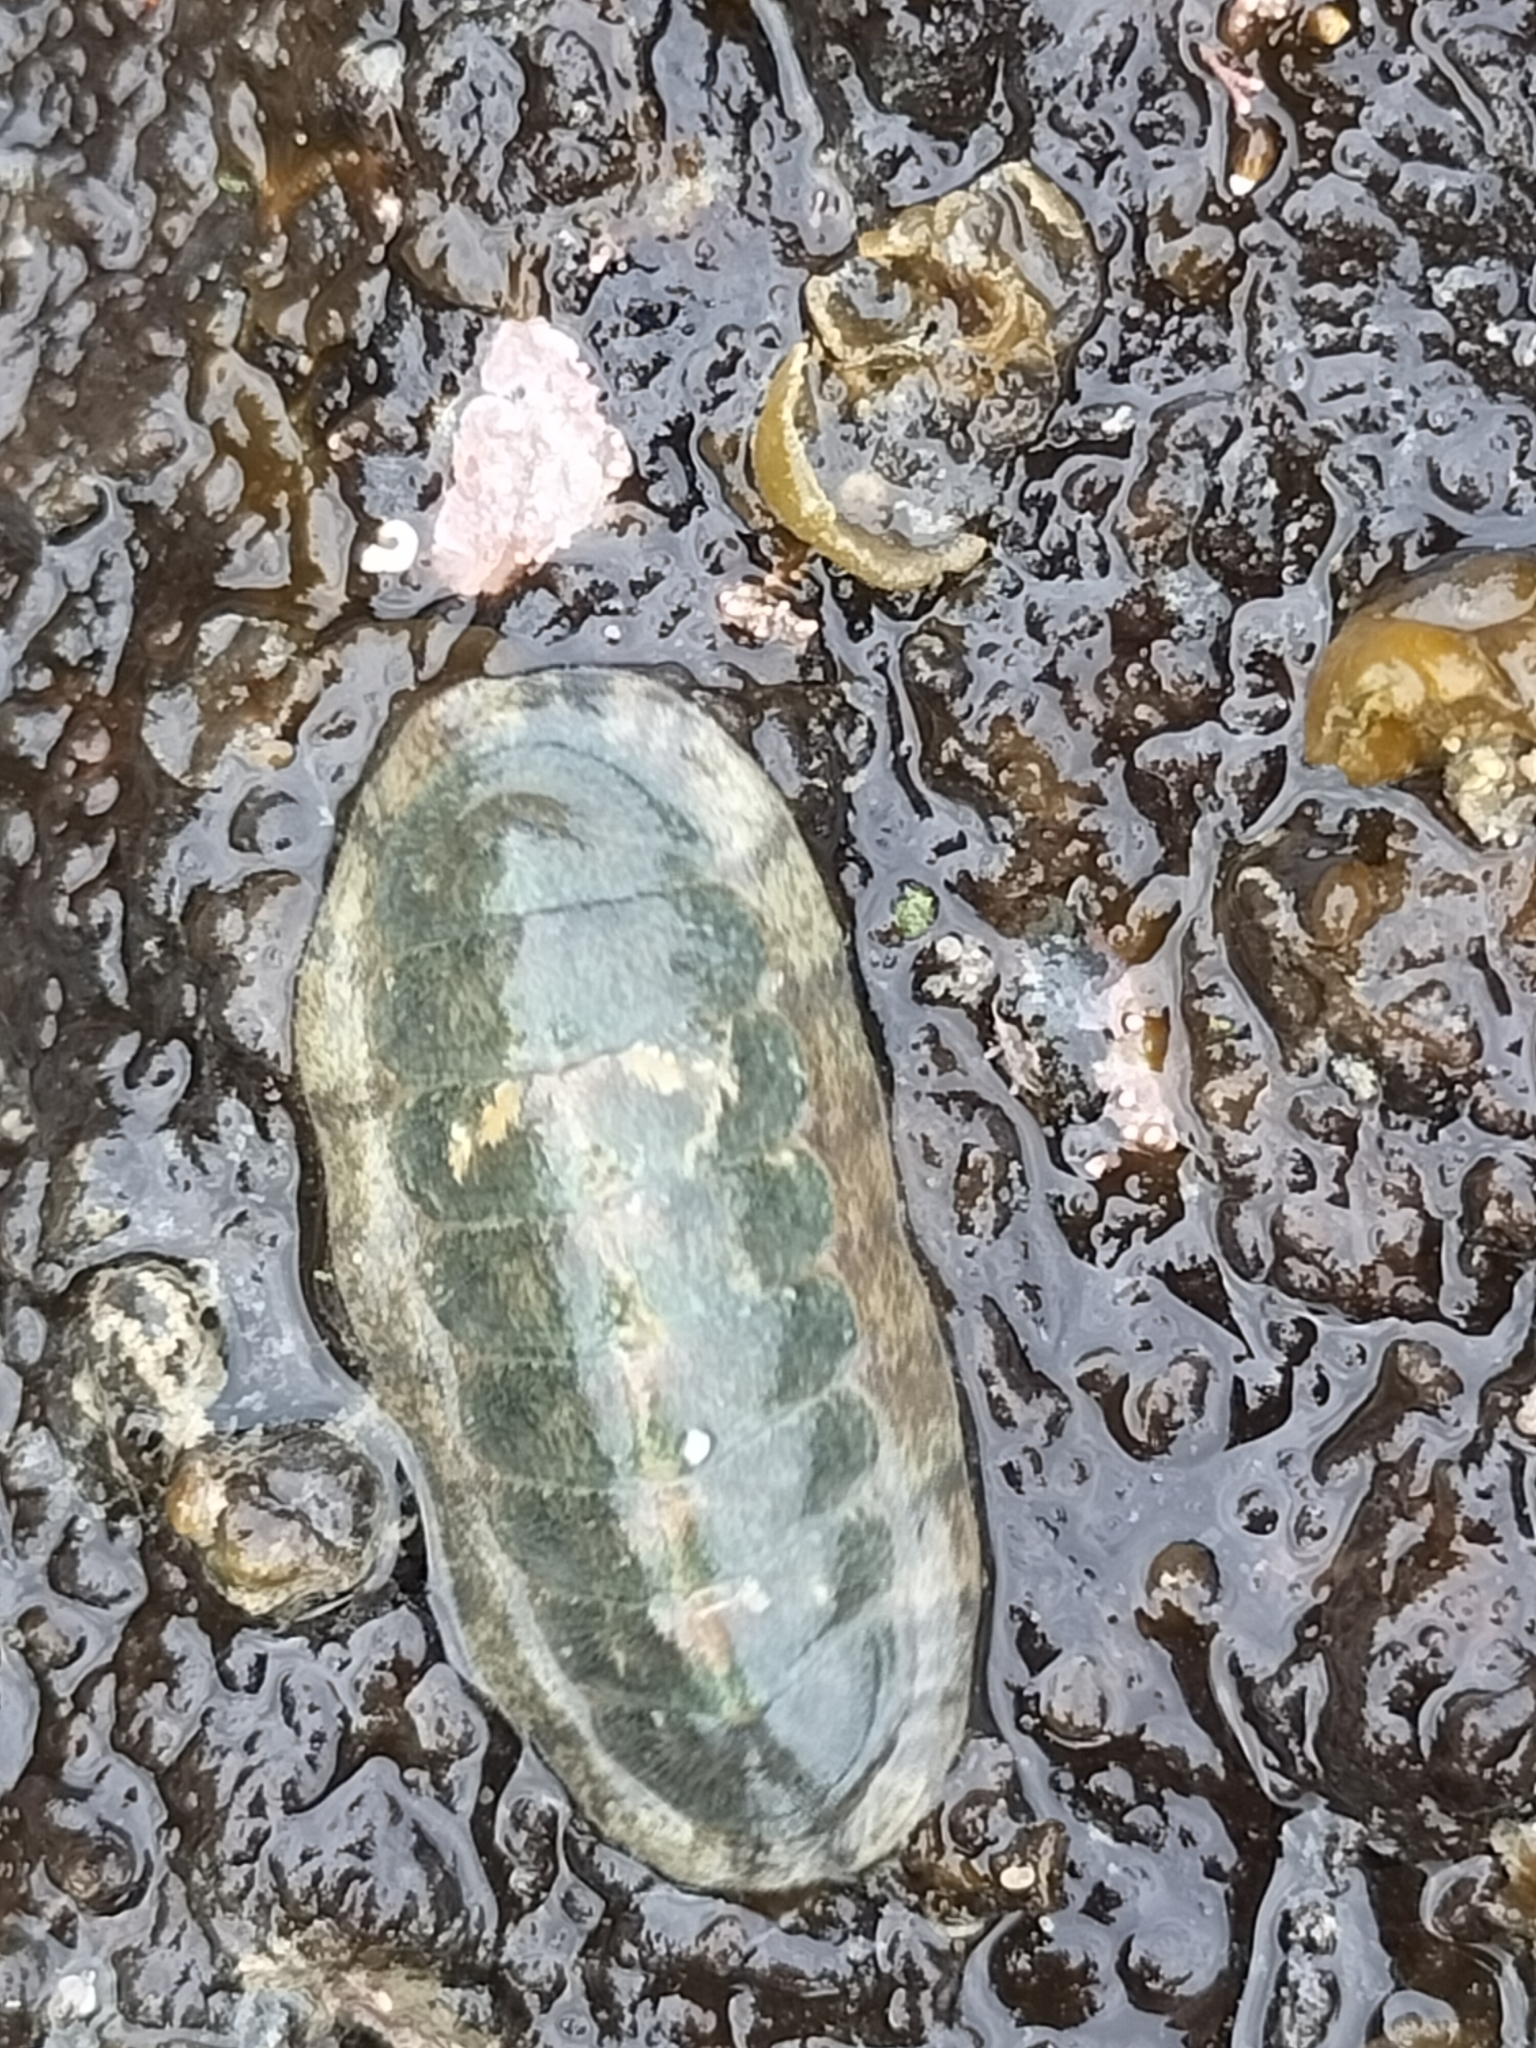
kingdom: Animalia
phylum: Mollusca
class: Polyplacophora
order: Chitonida
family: Ischnochitonidae
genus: Ischnochiton
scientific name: Ischnochiton maorianus
